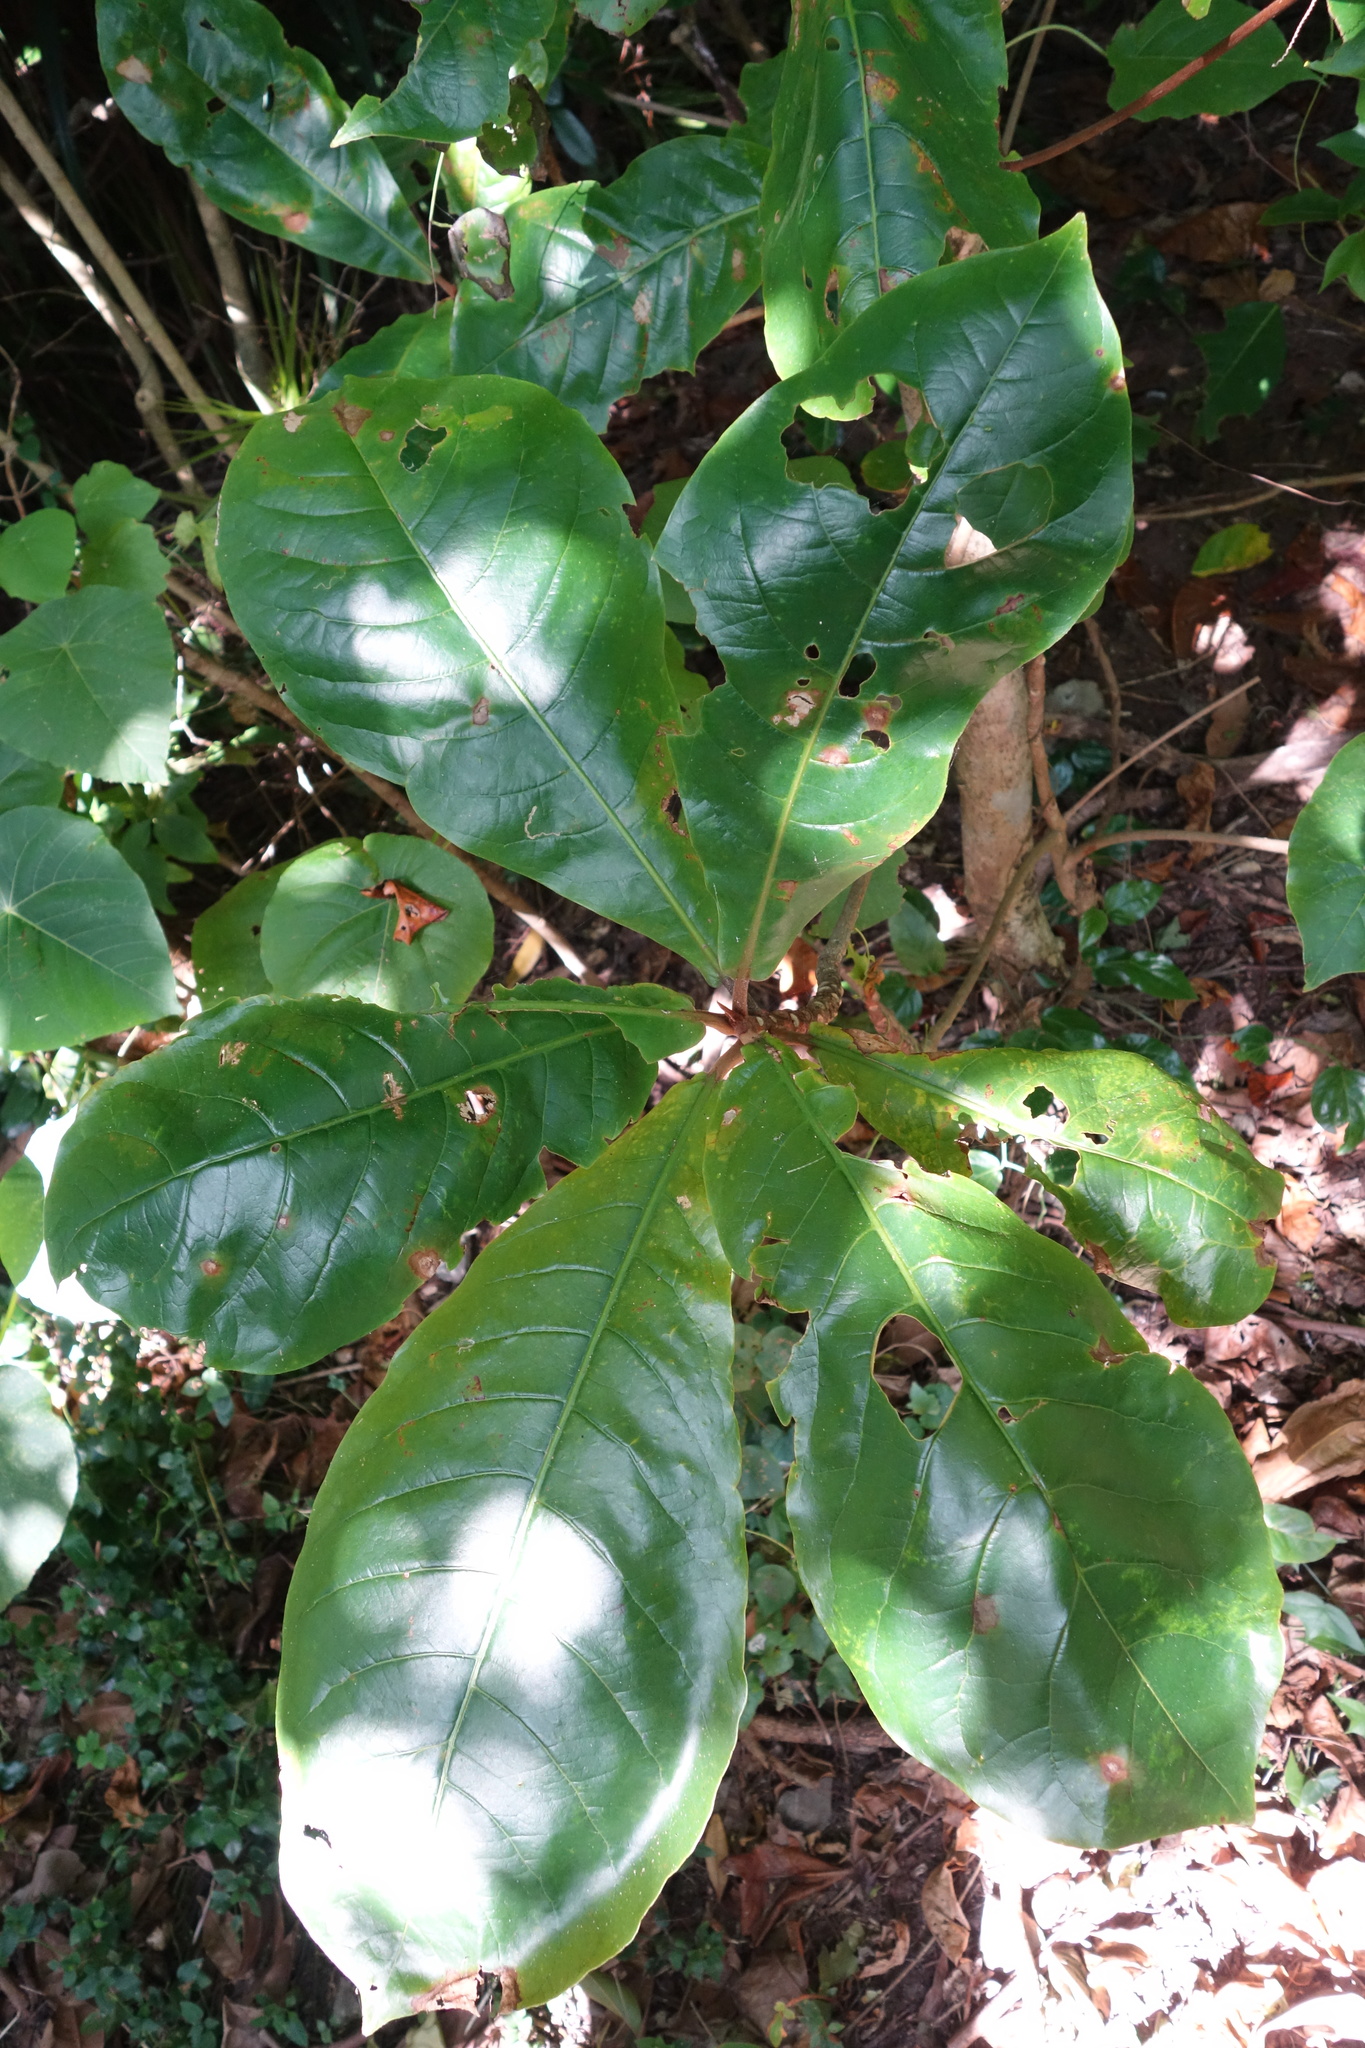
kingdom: Plantae
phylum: Tracheophyta
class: Magnoliopsida
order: Myrtales
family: Combretaceae
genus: Terminalia
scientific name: Terminalia catappa
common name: Tropical almond
